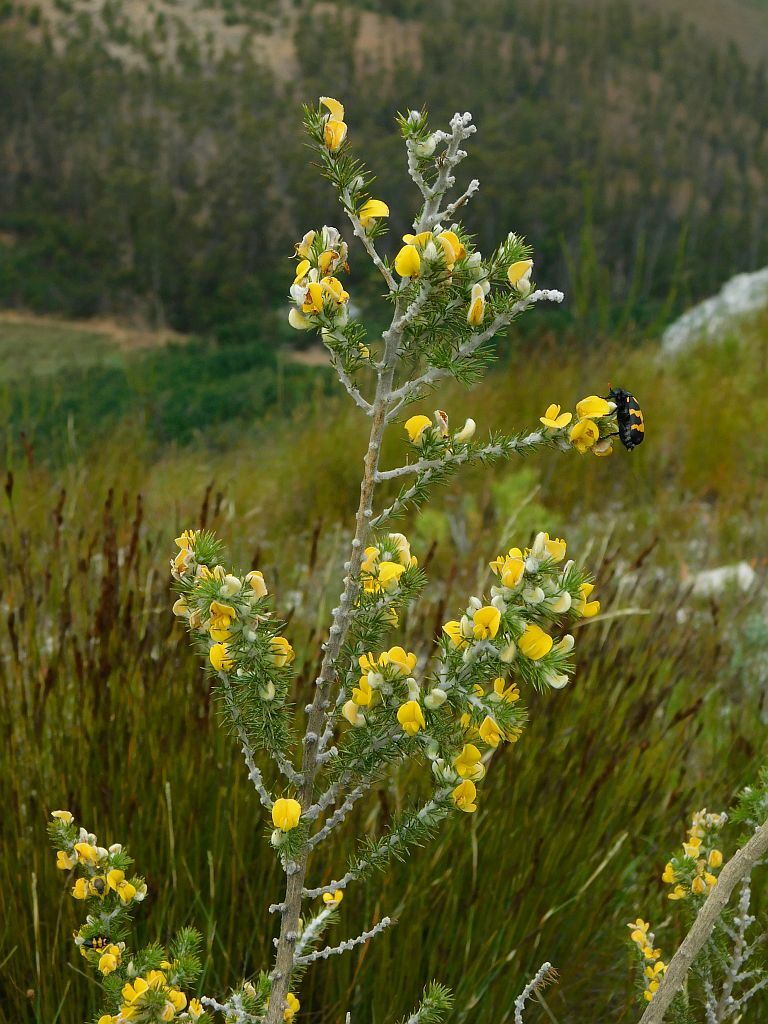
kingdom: Plantae
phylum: Tracheophyta
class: Magnoliopsida
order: Fabales
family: Fabaceae
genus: Aspalathus
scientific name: Aspalathus hirta
